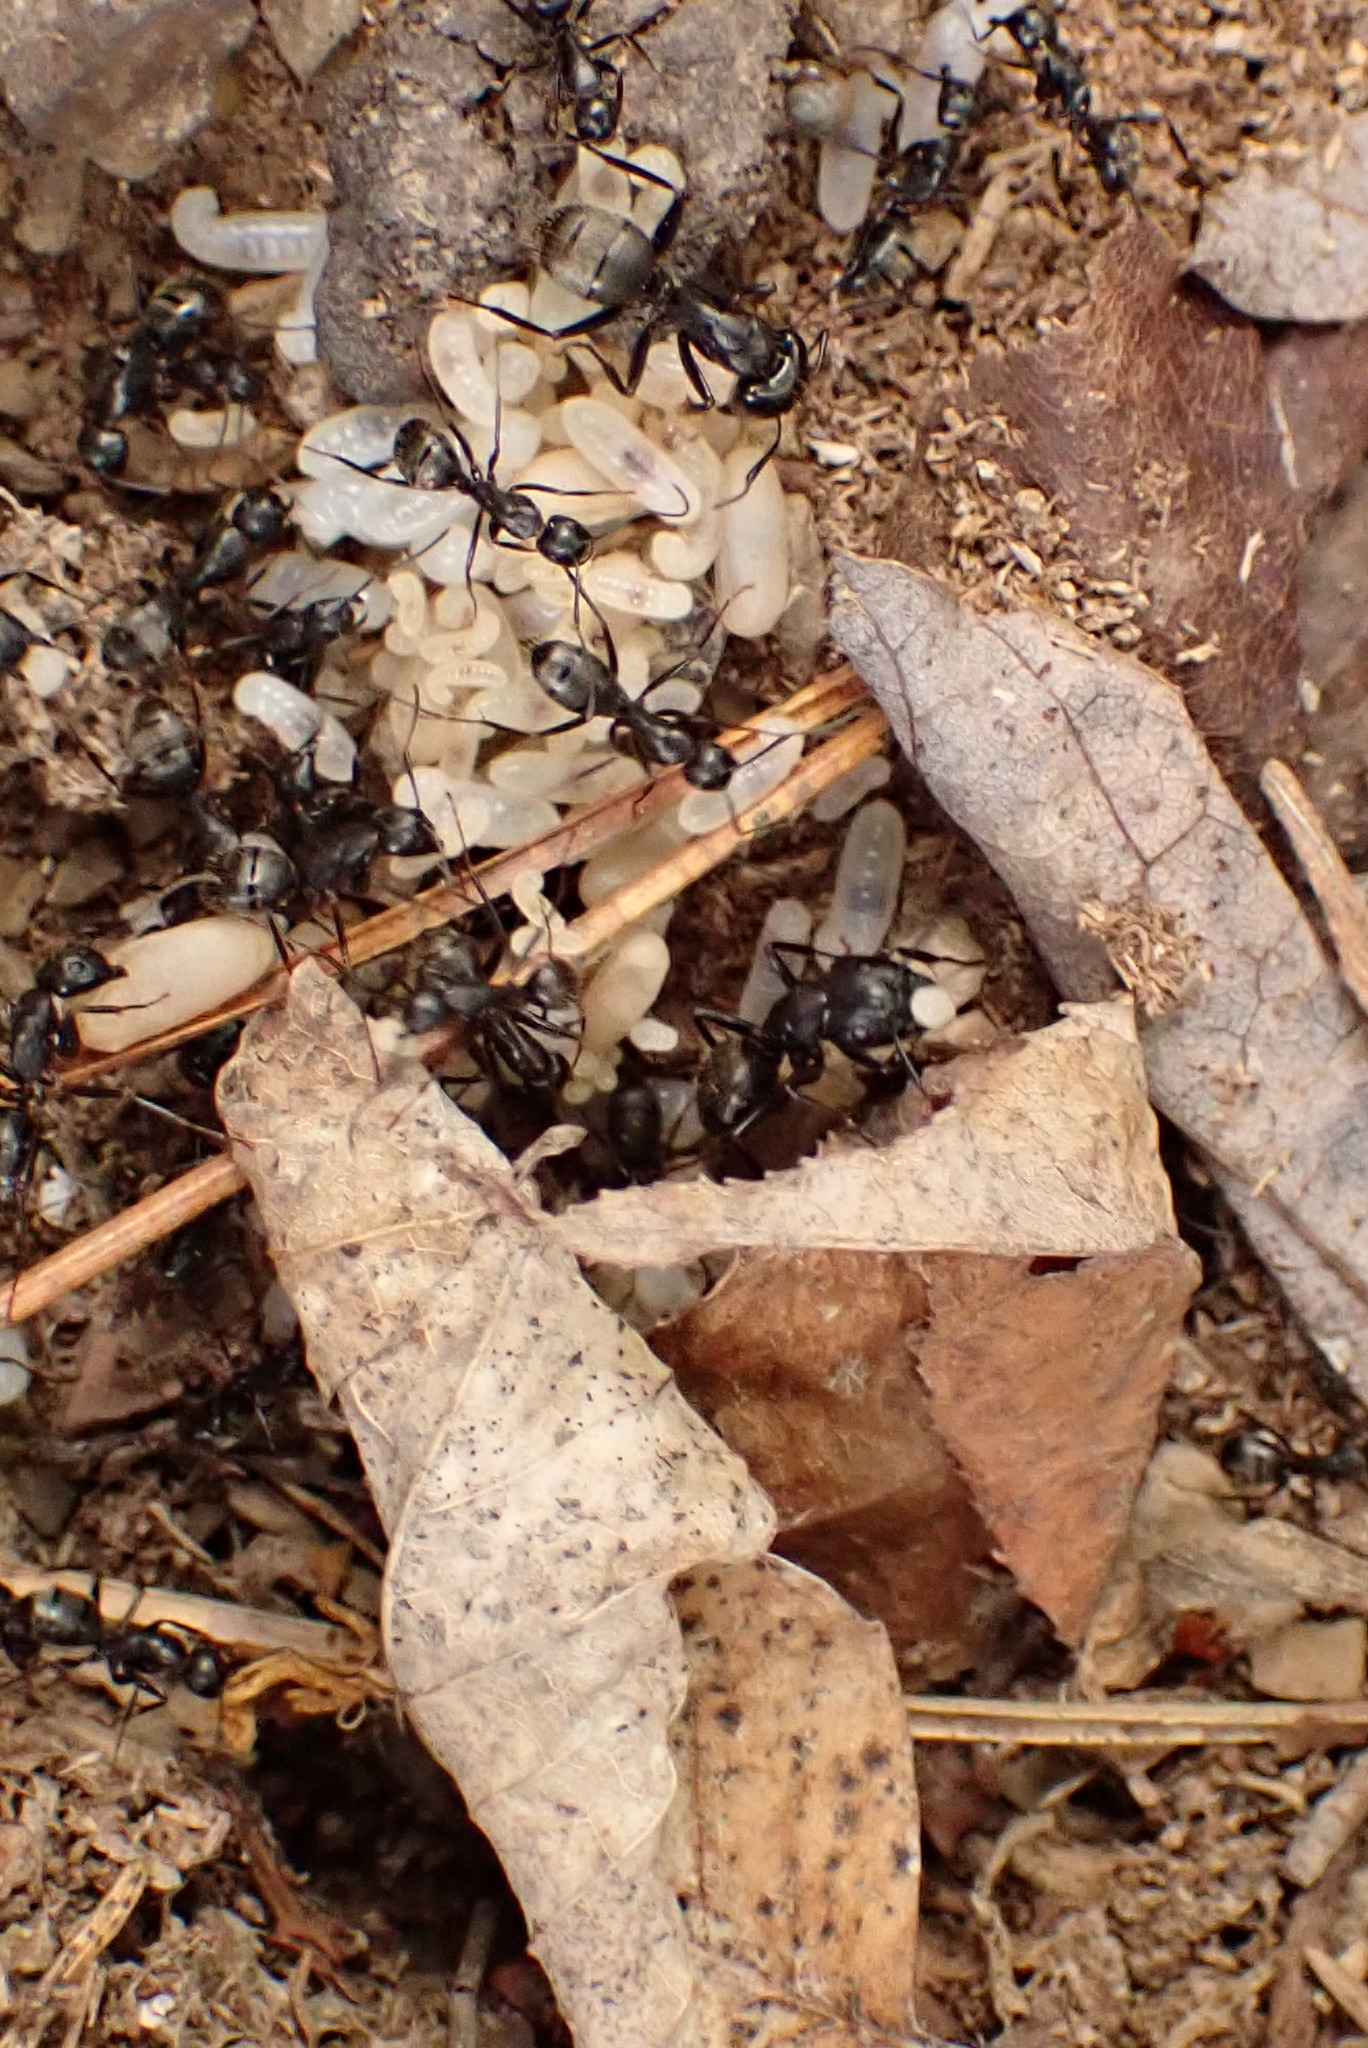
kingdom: Animalia
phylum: Arthropoda
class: Insecta
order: Hymenoptera
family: Formicidae
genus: Camponotus
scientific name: Camponotus pennsylvanicus
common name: Black carpenter ant
